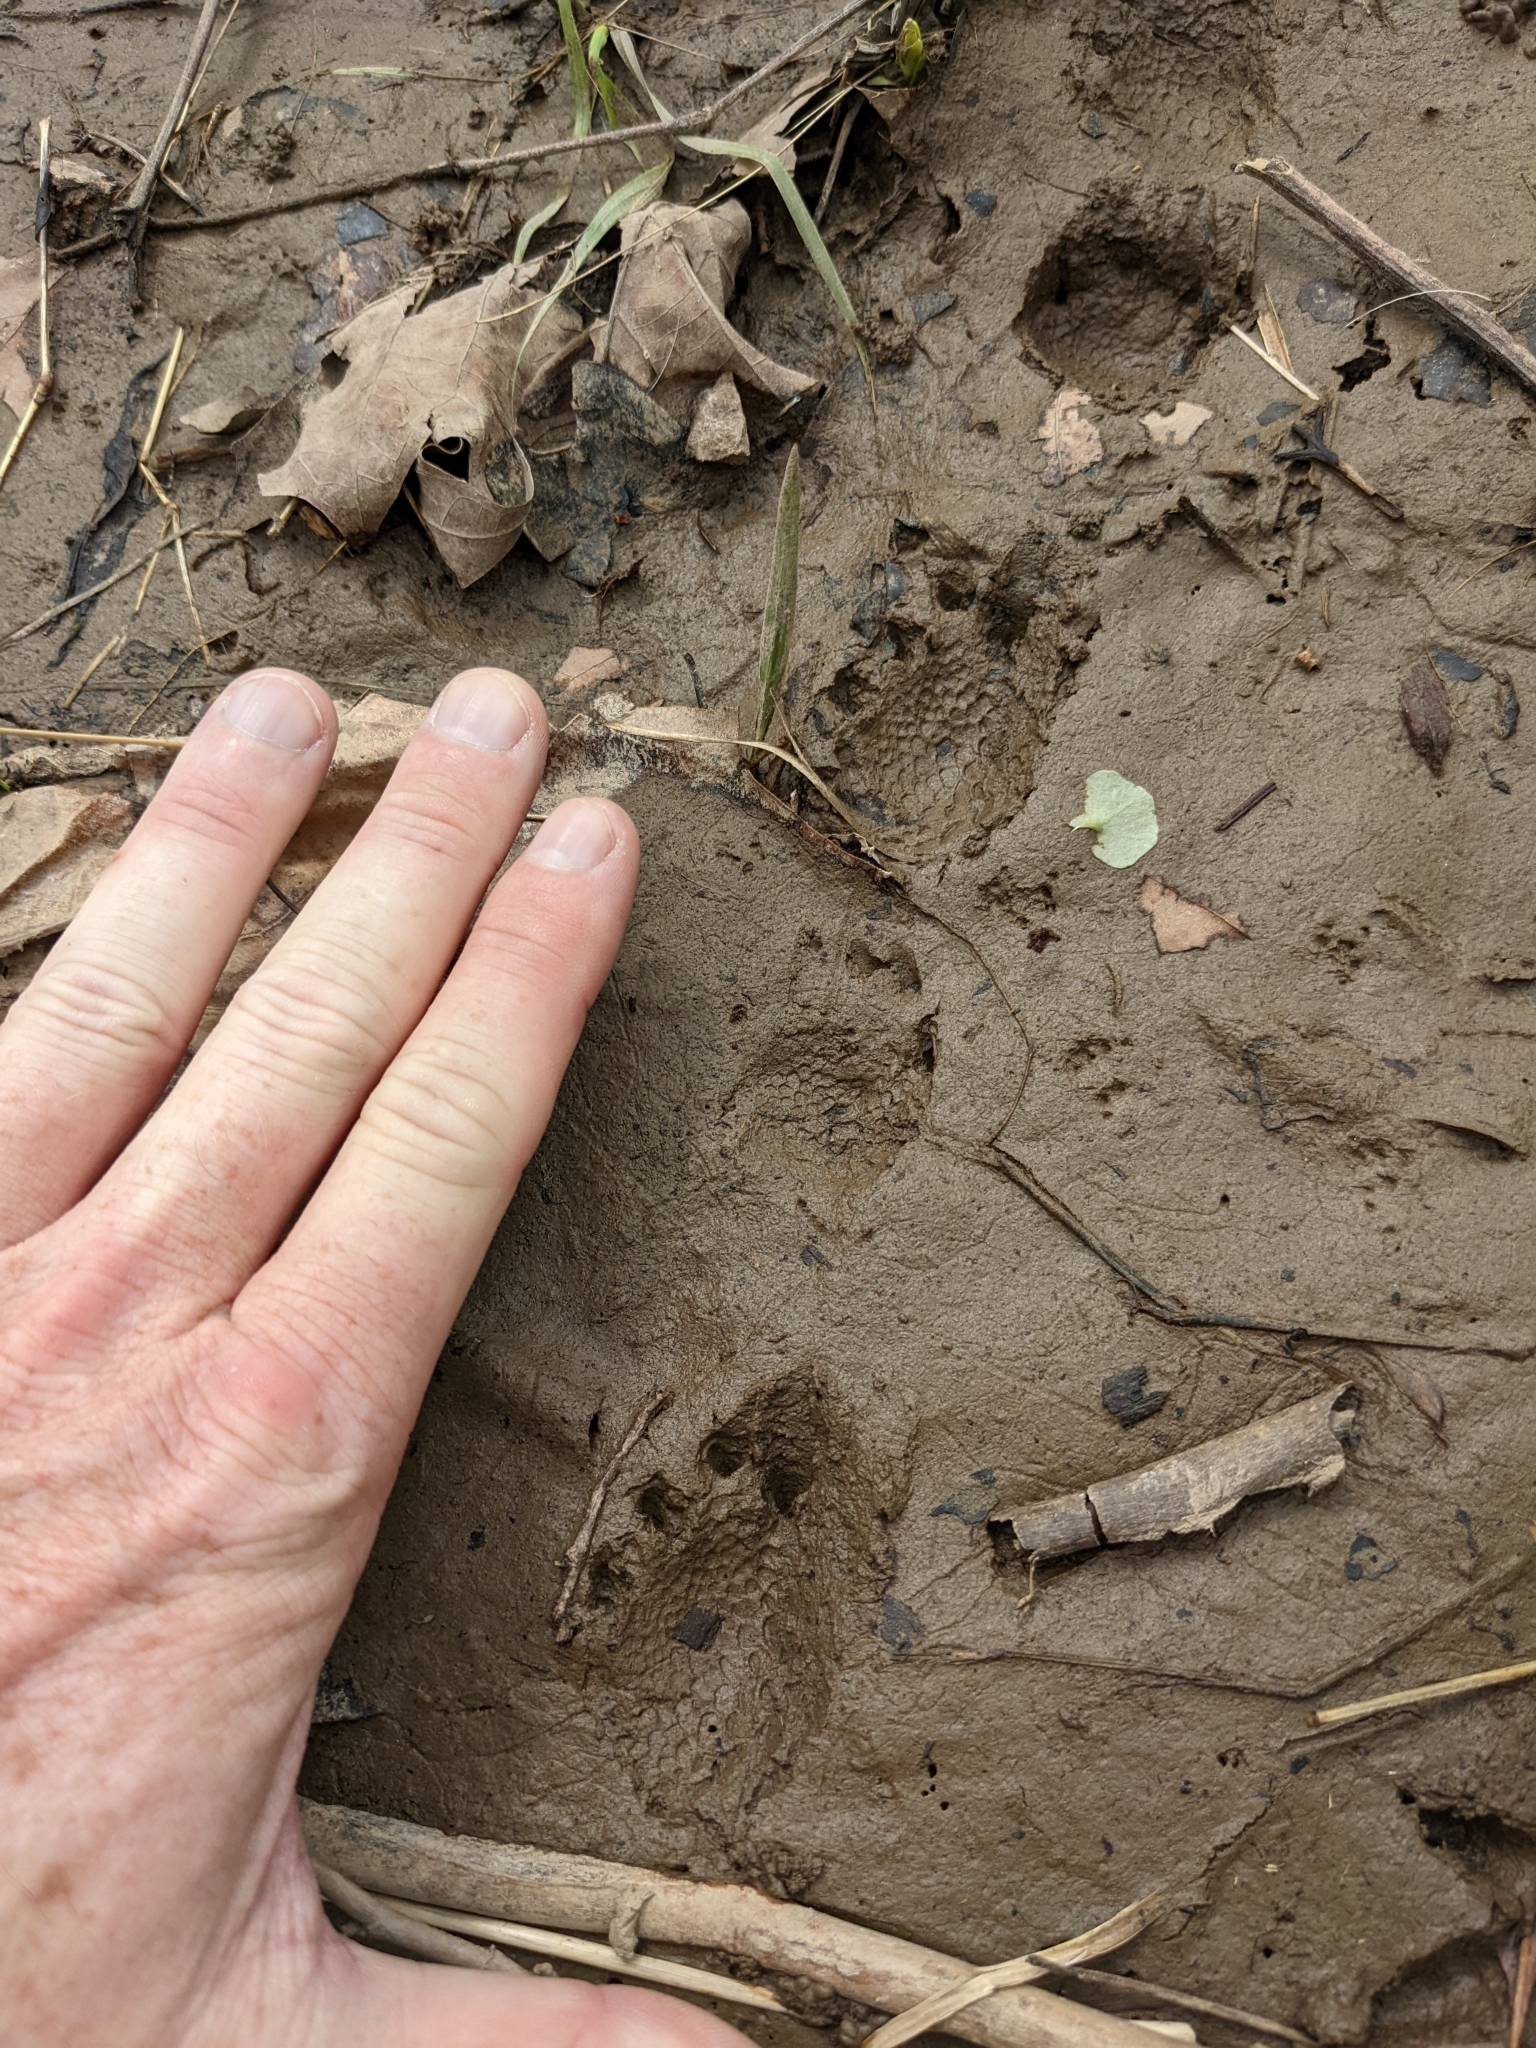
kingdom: Animalia
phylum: Chordata
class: Testudines
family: Emydidae
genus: Glyptemys
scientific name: Glyptemys insculpta
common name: Wood turtle
